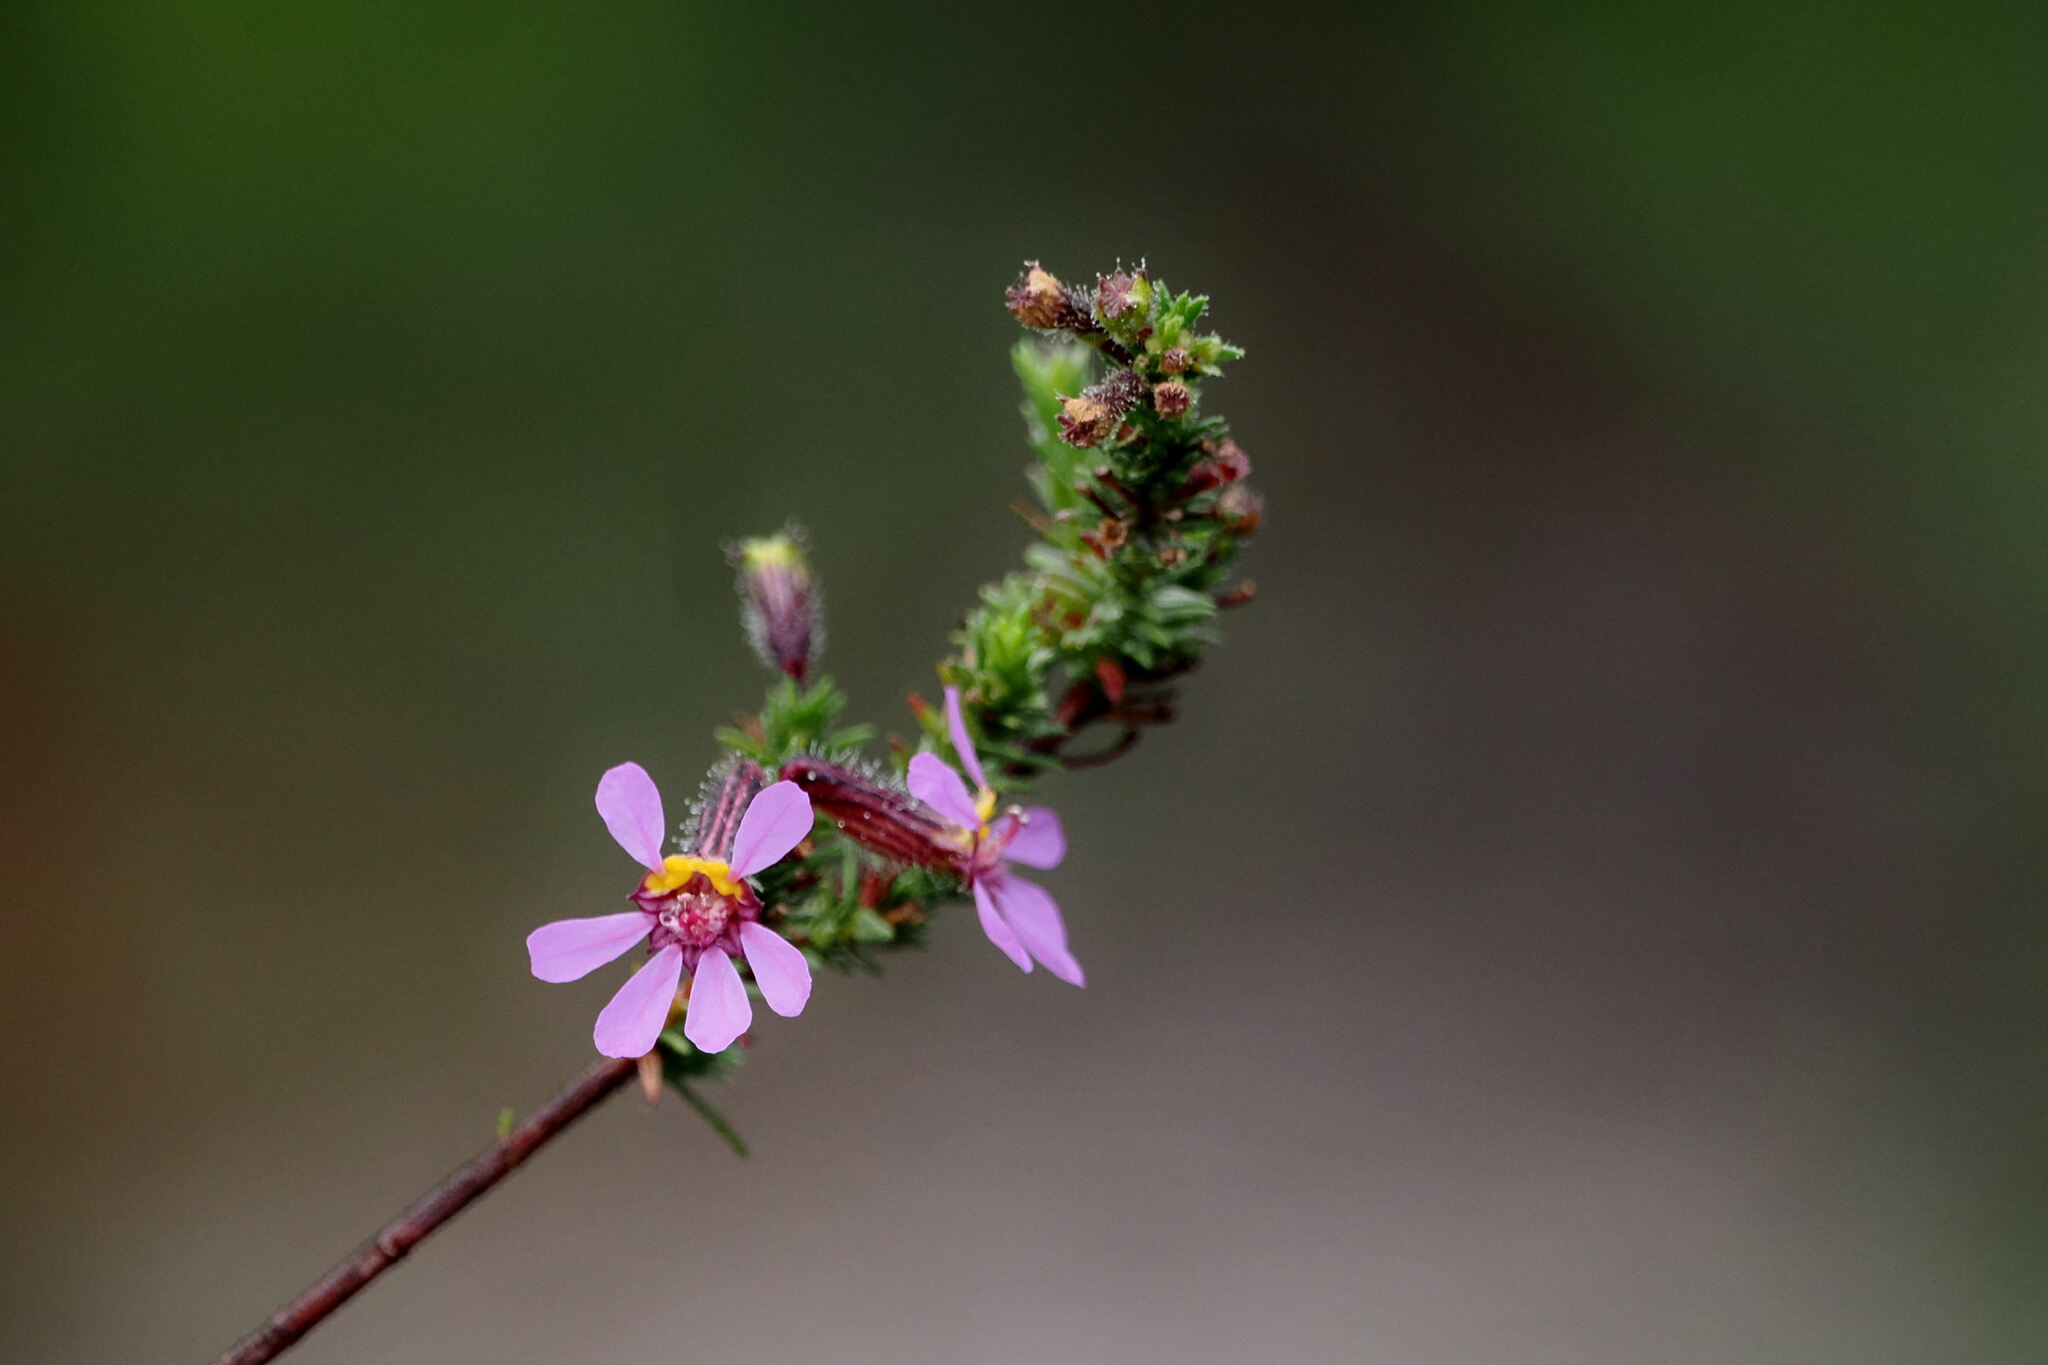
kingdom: Plantae
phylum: Tracheophyta
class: Magnoliopsida
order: Myrtales
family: Lythraceae
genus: Cuphea
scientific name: Cuphea ericoides
